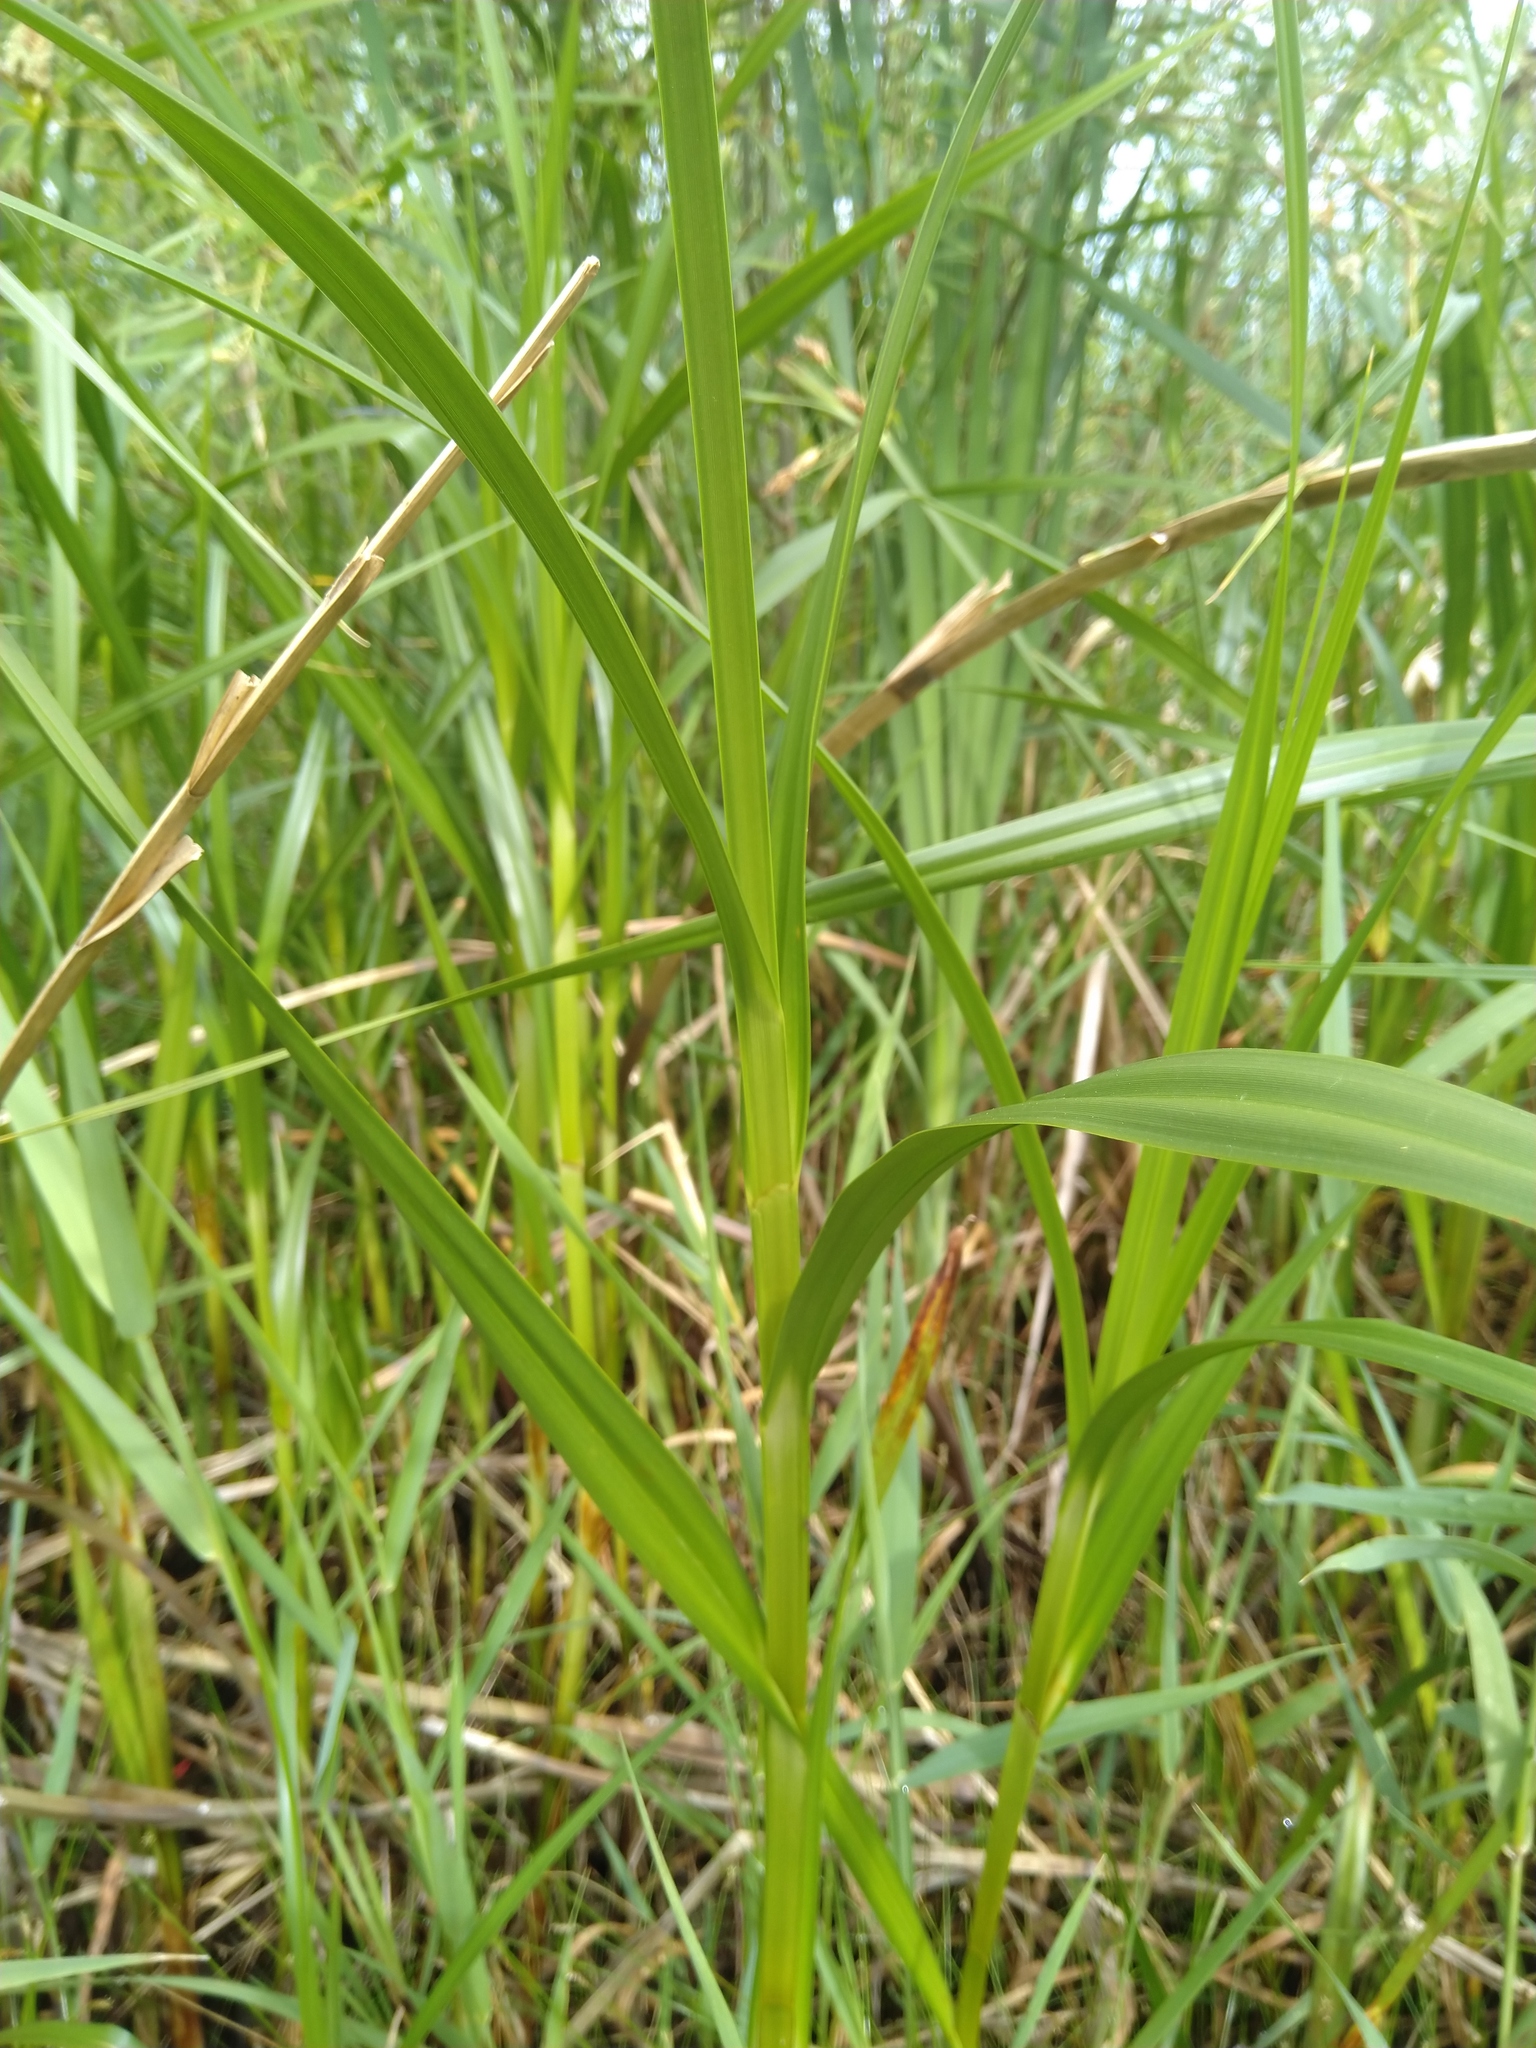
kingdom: Plantae
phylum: Tracheophyta
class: Liliopsida
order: Poales
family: Cyperaceae
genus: Bolboschoenus
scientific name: Bolboschoenus fluviatilis
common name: River bulrush
